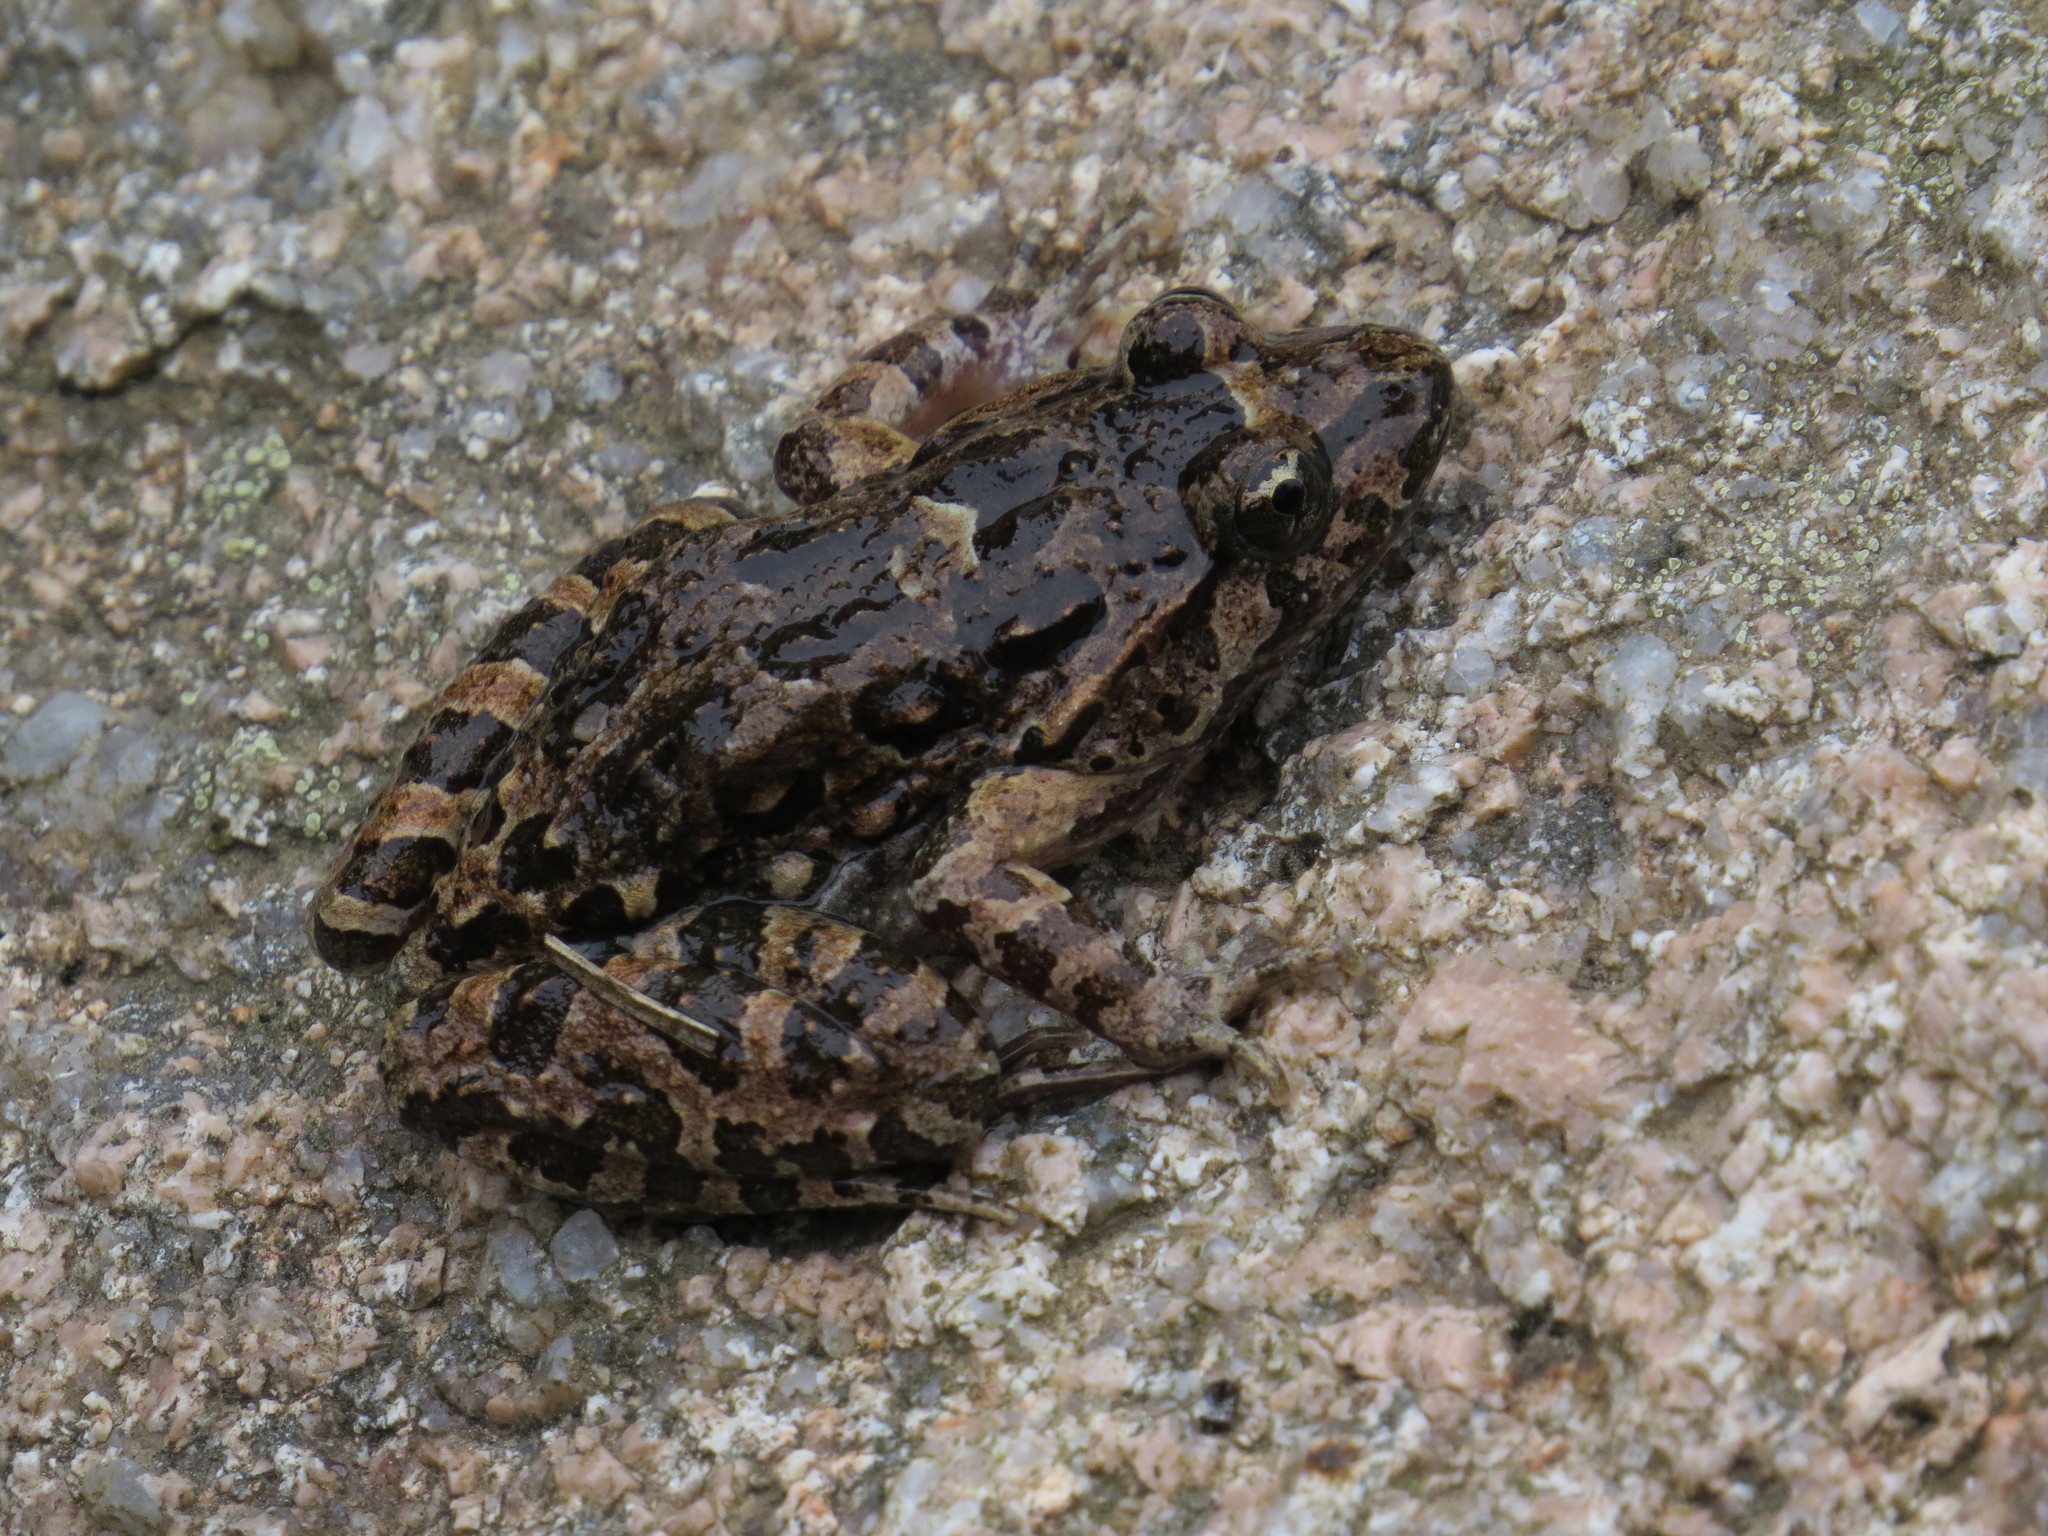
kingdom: Animalia
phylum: Chordata
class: Amphibia
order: Anura
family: Alytidae
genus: Discoglossus
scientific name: Discoglossus sardus
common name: Sardinia painted frog
